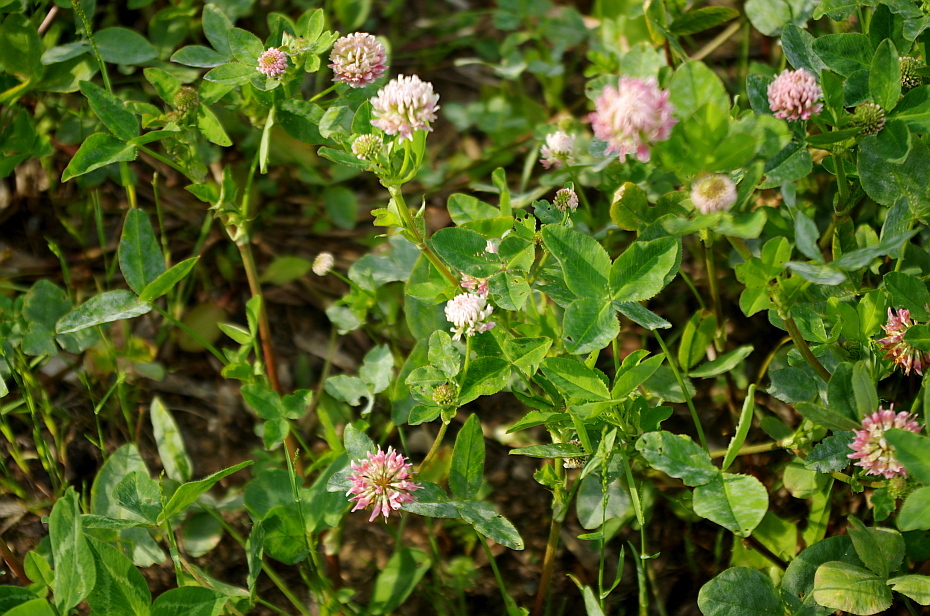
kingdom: Plantae
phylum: Tracheophyta
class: Magnoliopsida
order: Fabales
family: Fabaceae
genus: Trifolium
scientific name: Trifolium hybridum
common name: Alsike clover
